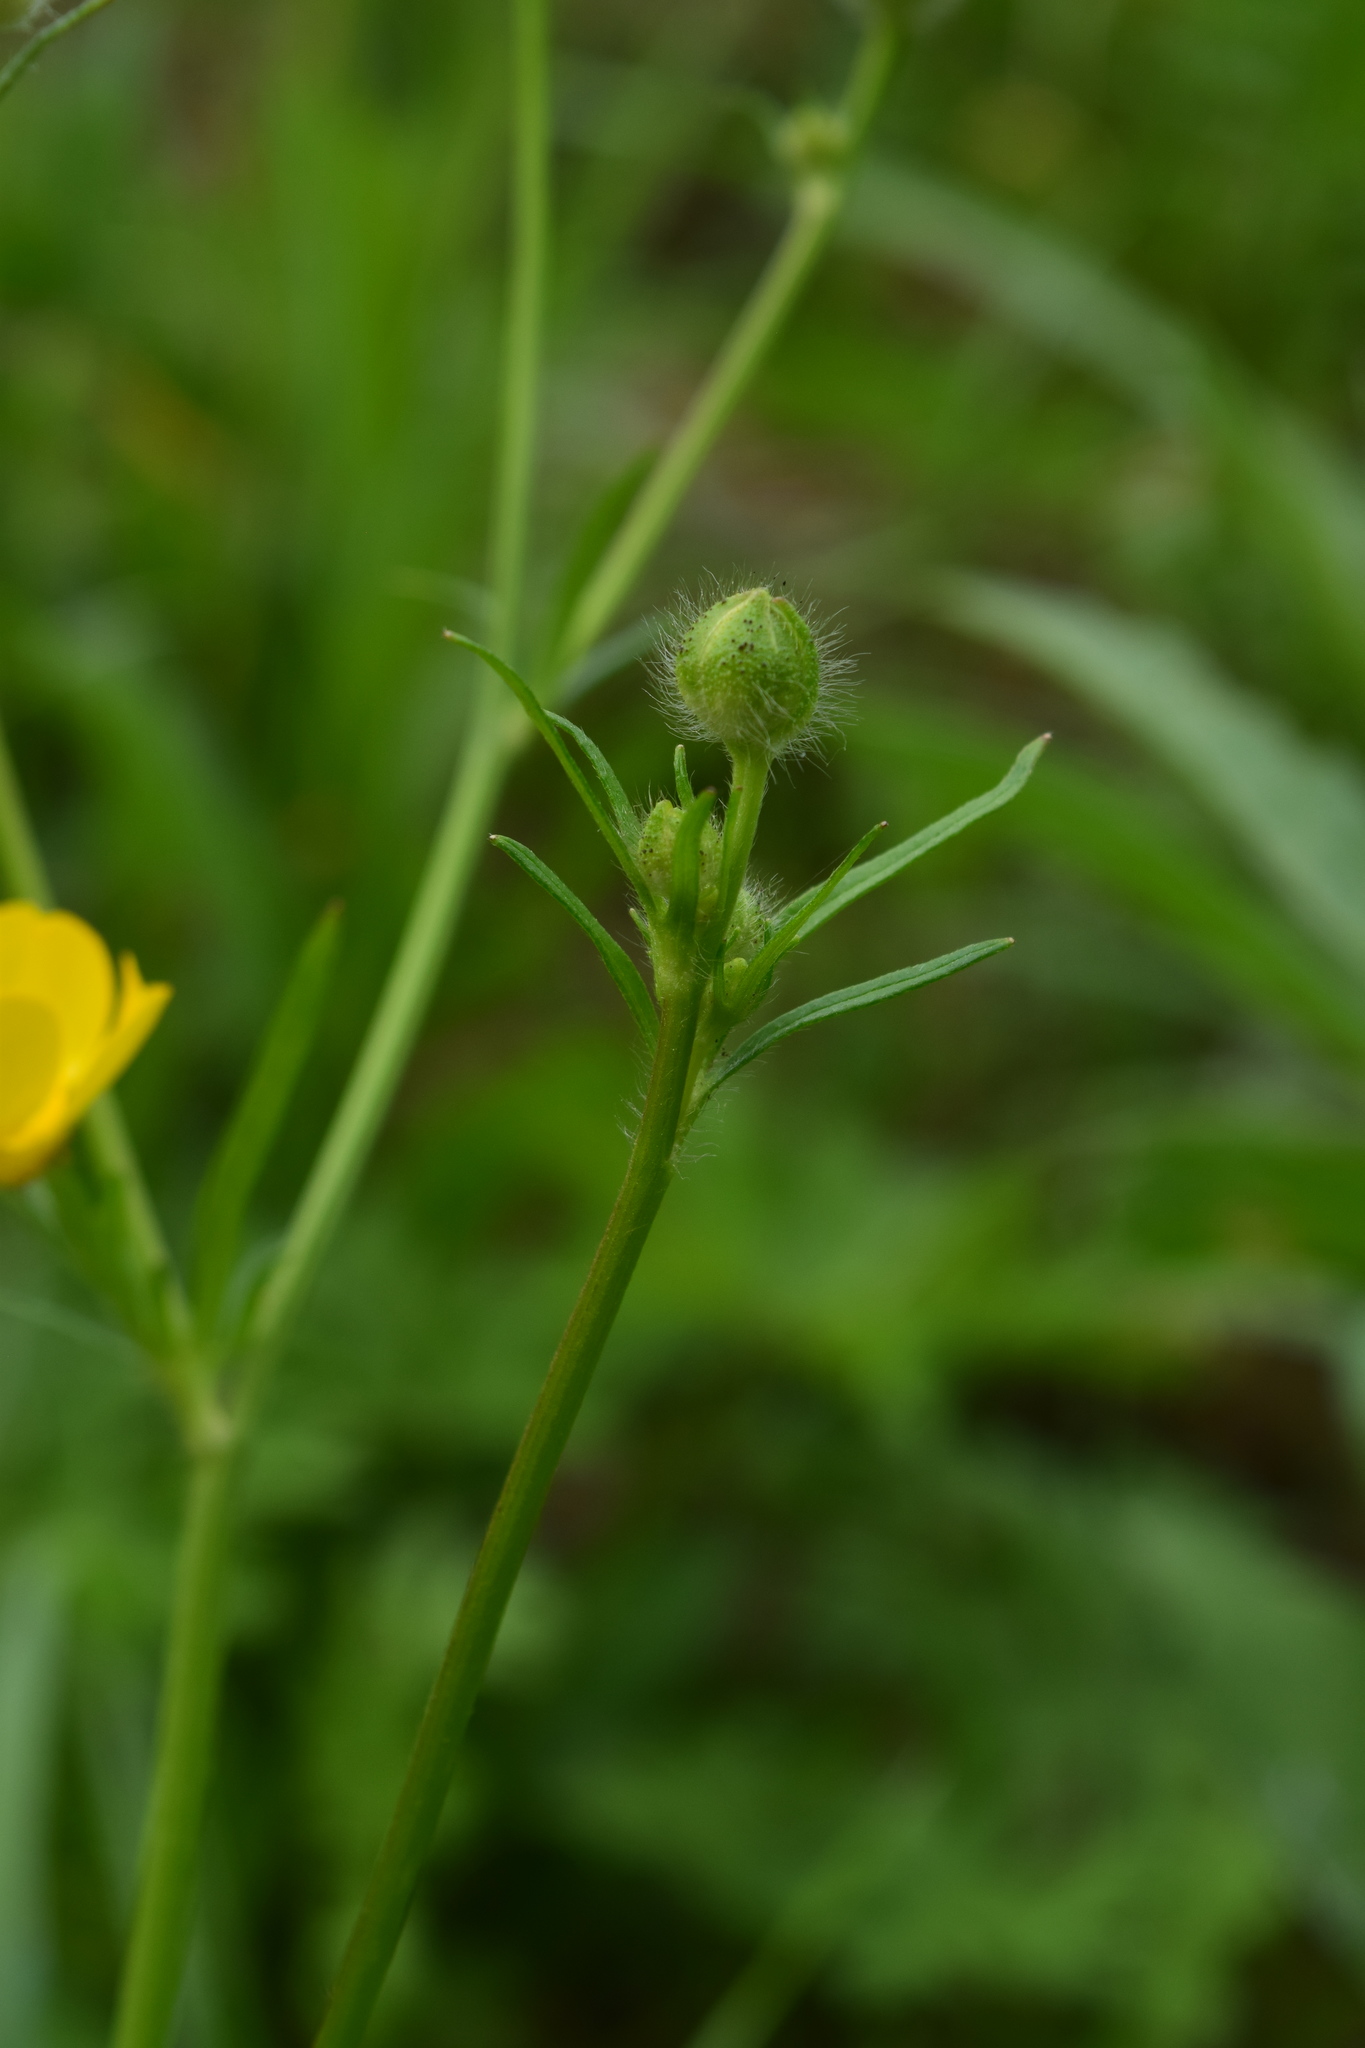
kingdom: Plantae
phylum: Tracheophyta
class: Magnoliopsida
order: Ranunculales
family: Ranunculaceae
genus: Ranunculus
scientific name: Ranunculus polyanthemos
